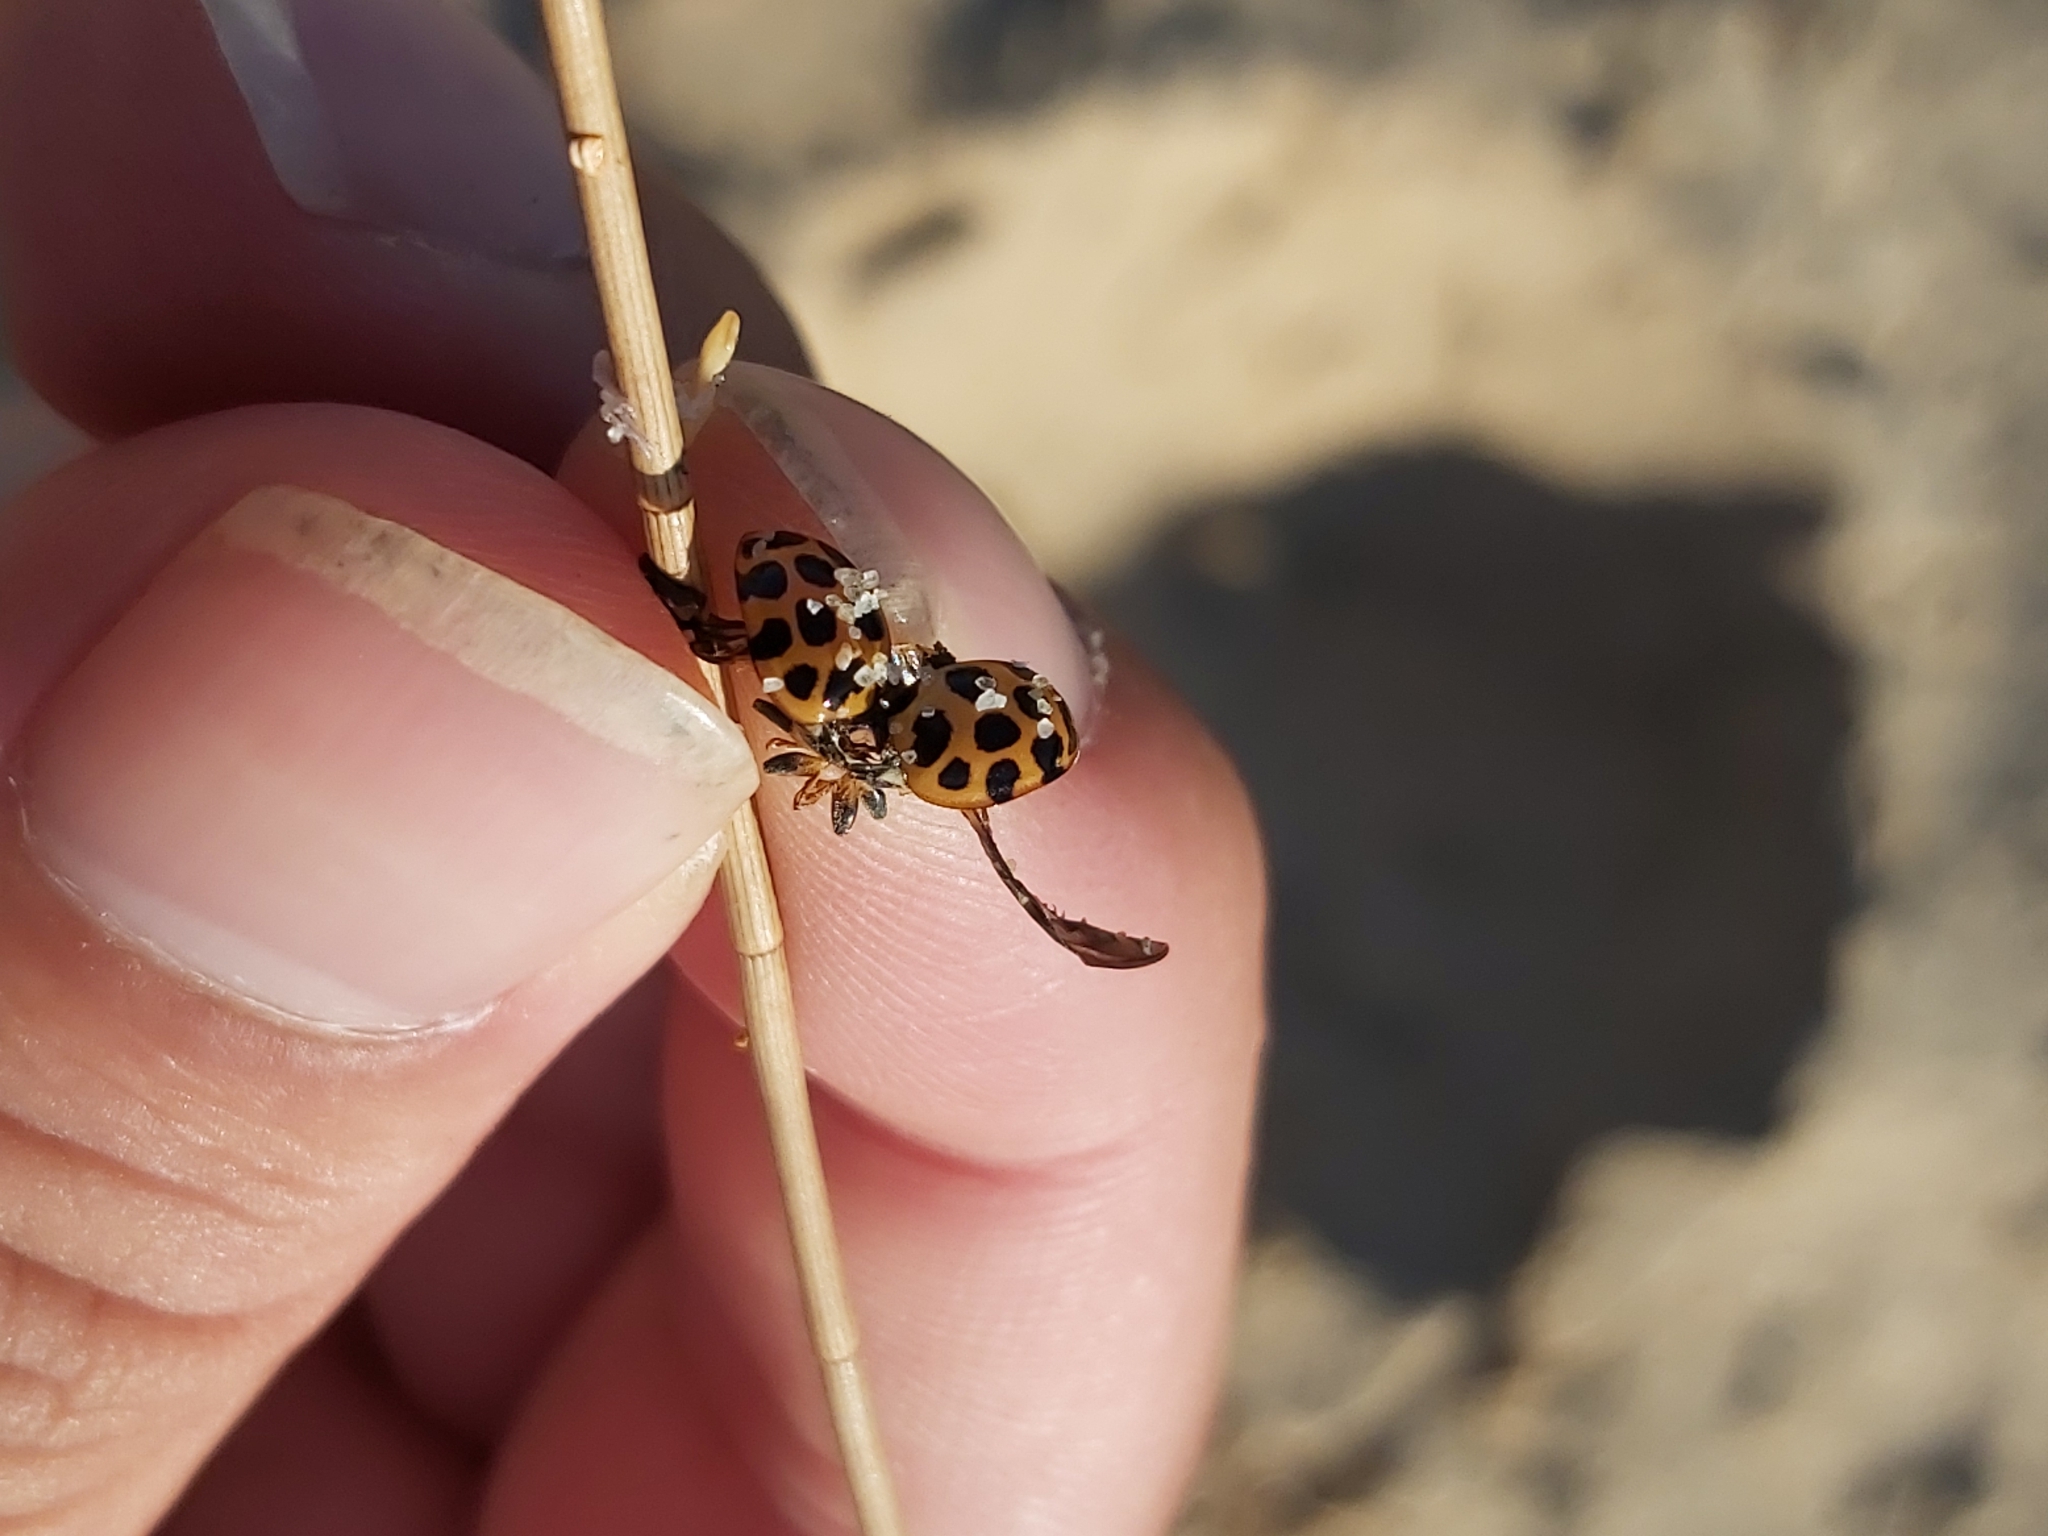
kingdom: Animalia
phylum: Arthropoda
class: Insecta
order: Coleoptera
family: Coccinellidae
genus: Harmonia
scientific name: Harmonia conformis
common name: Common spotted ladybird beetle
